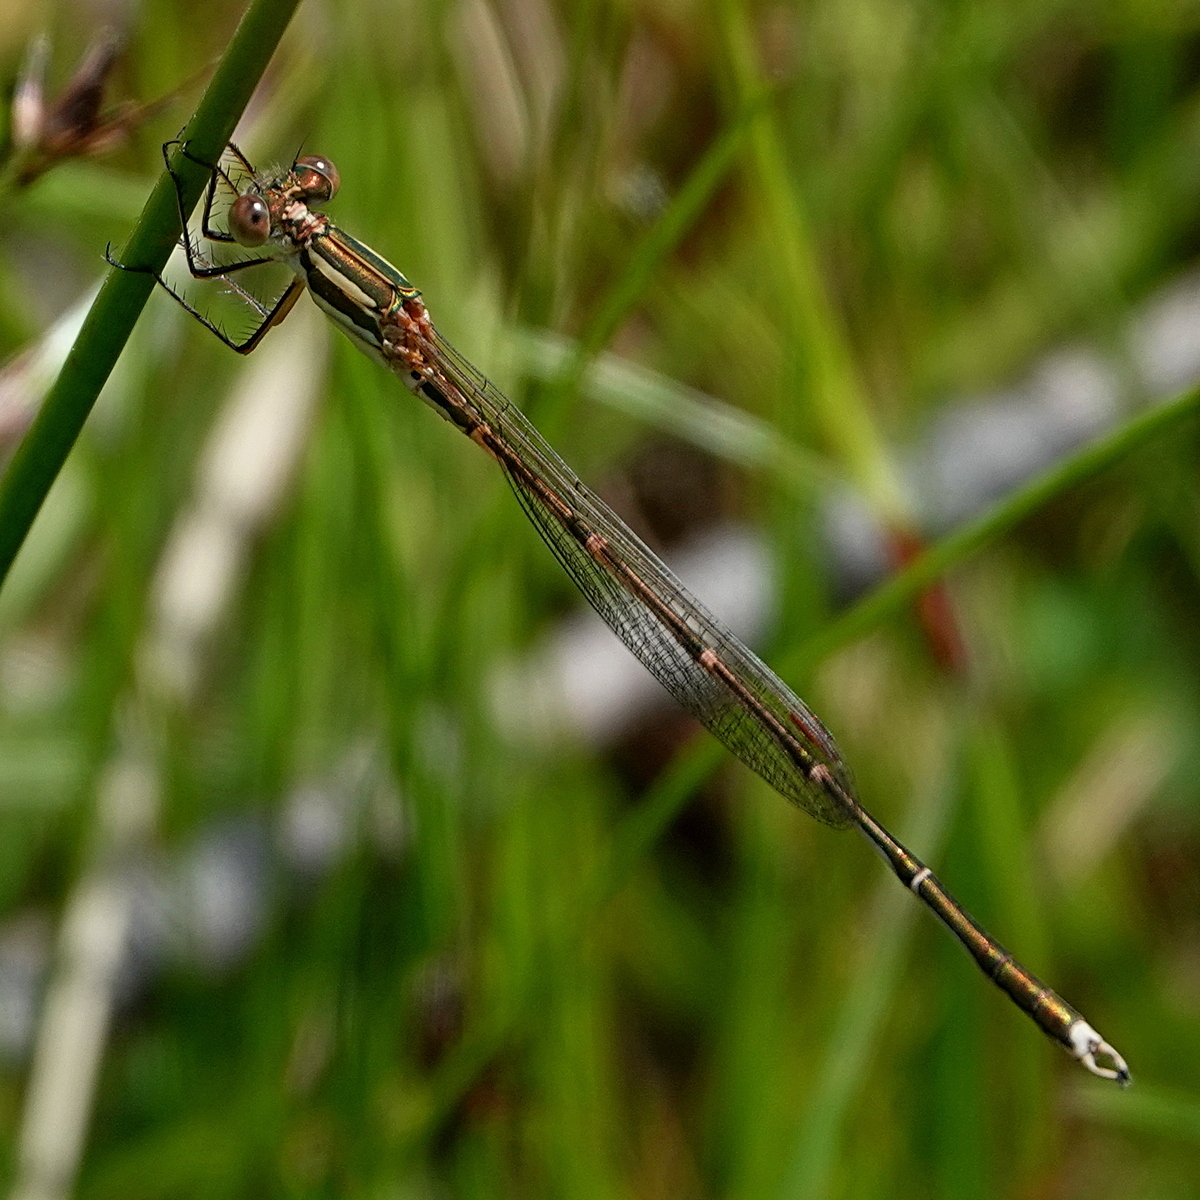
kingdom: Animalia
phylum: Arthropoda
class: Insecta
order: Odonata
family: Lestidae
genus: Austrolestes
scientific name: Austrolestes analis
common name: Slender ringtail
